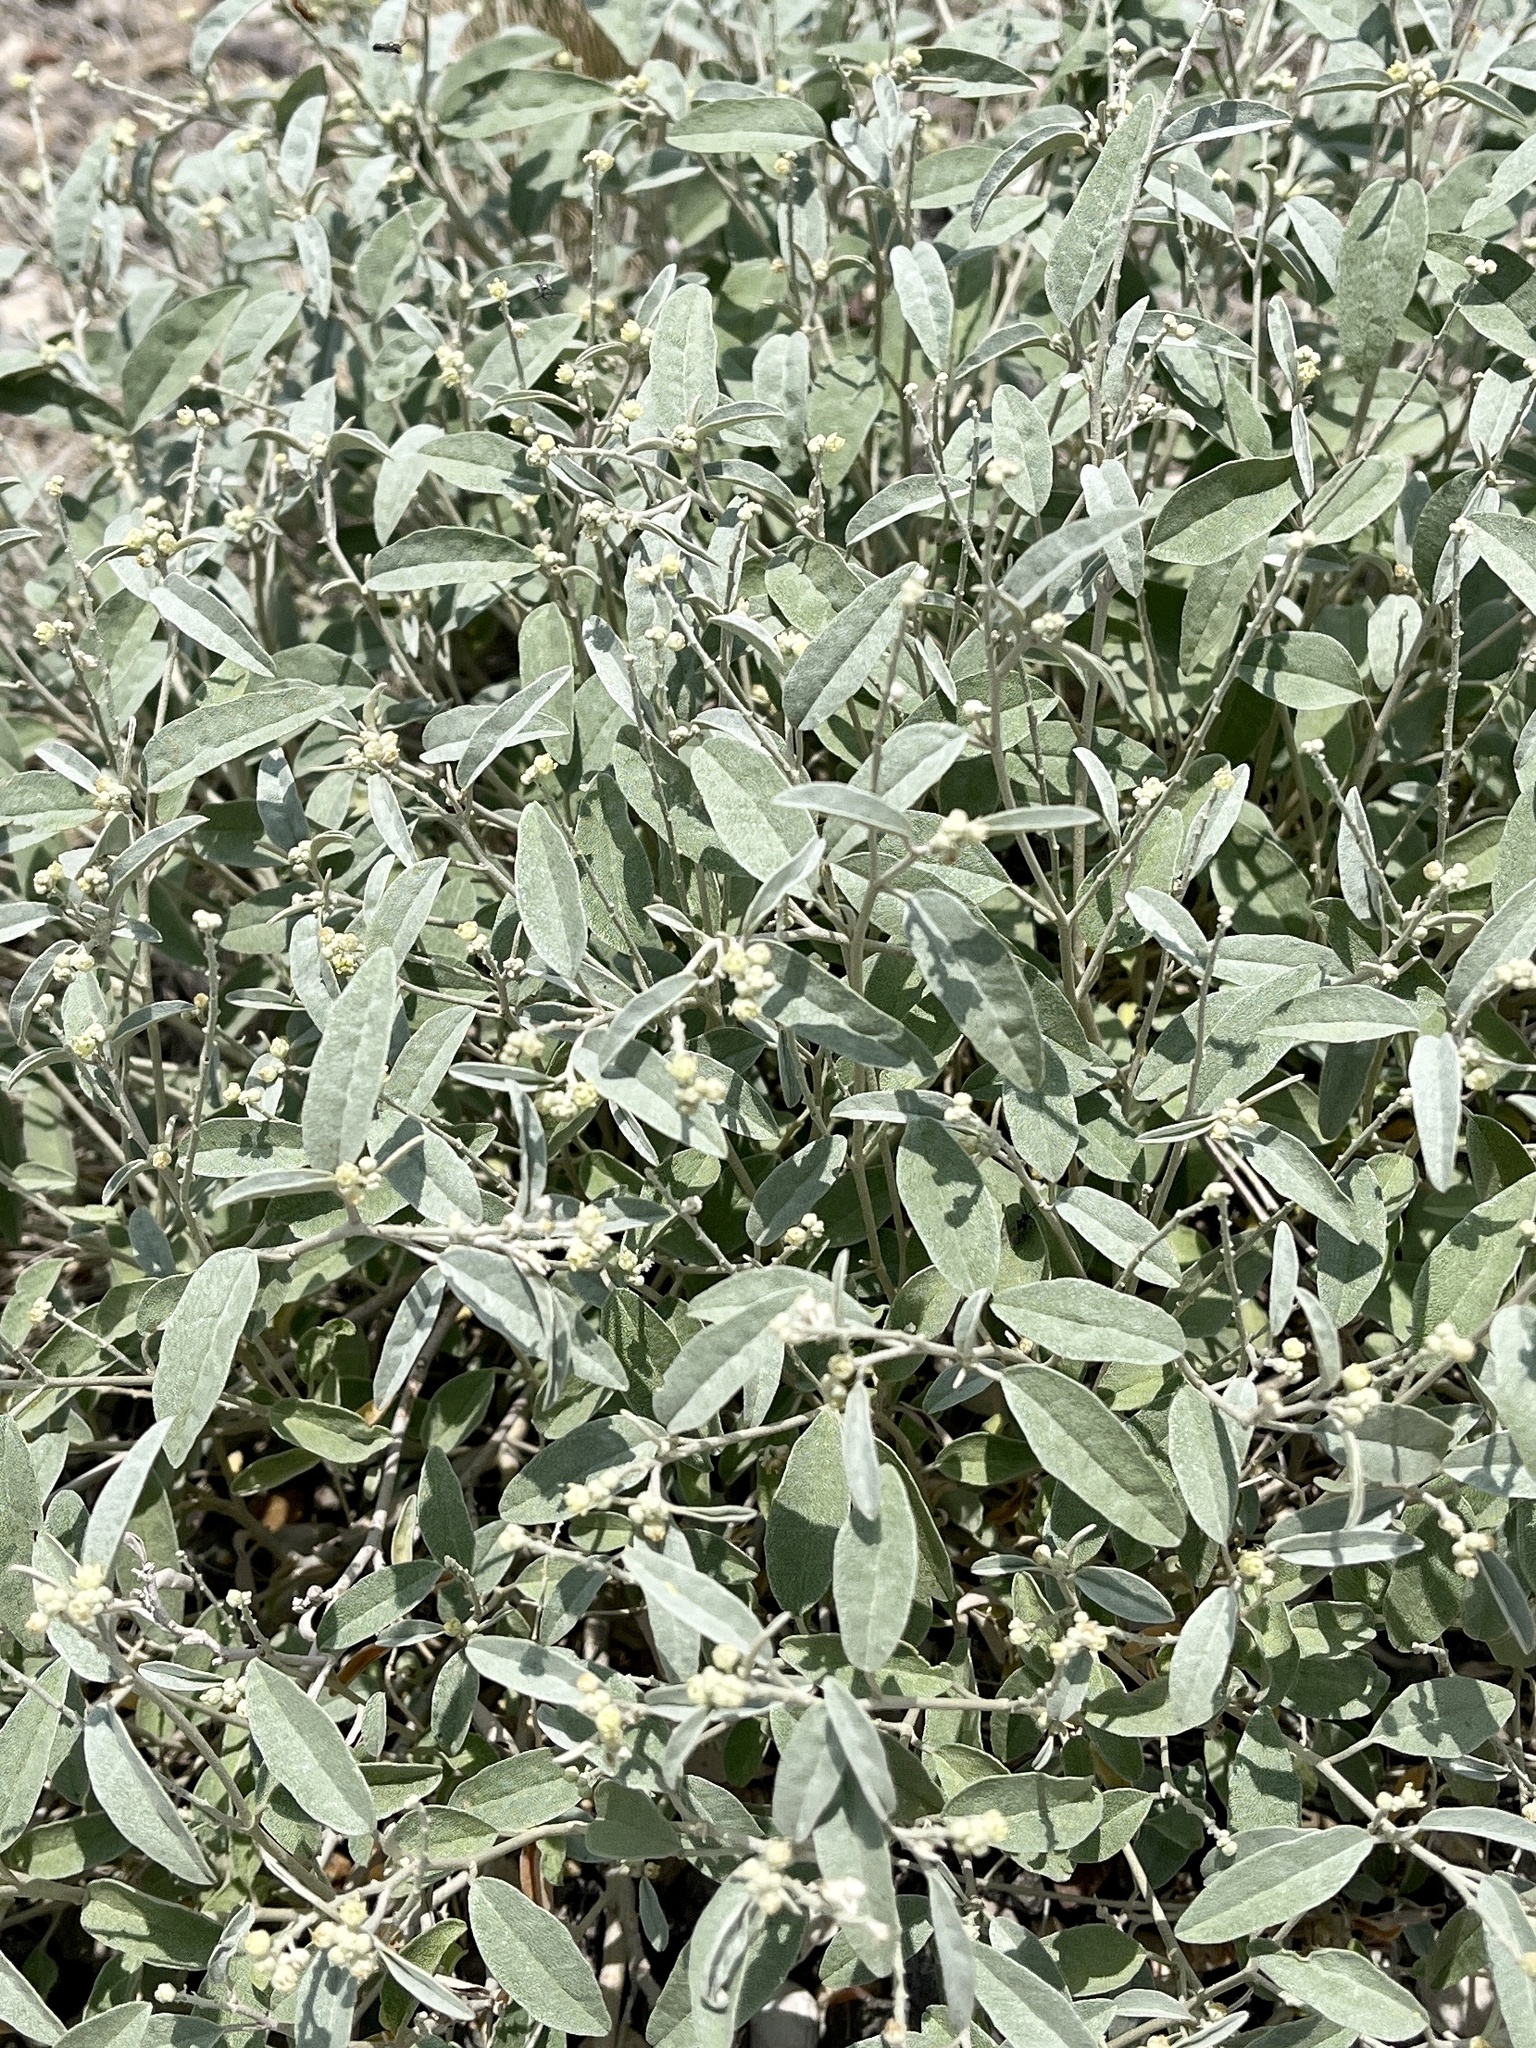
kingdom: Plantae
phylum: Tracheophyta
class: Magnoliopsida
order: Malpighiales
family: Euphorbiaceae
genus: Croton
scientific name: Croton dioicus
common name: Grassland croton
